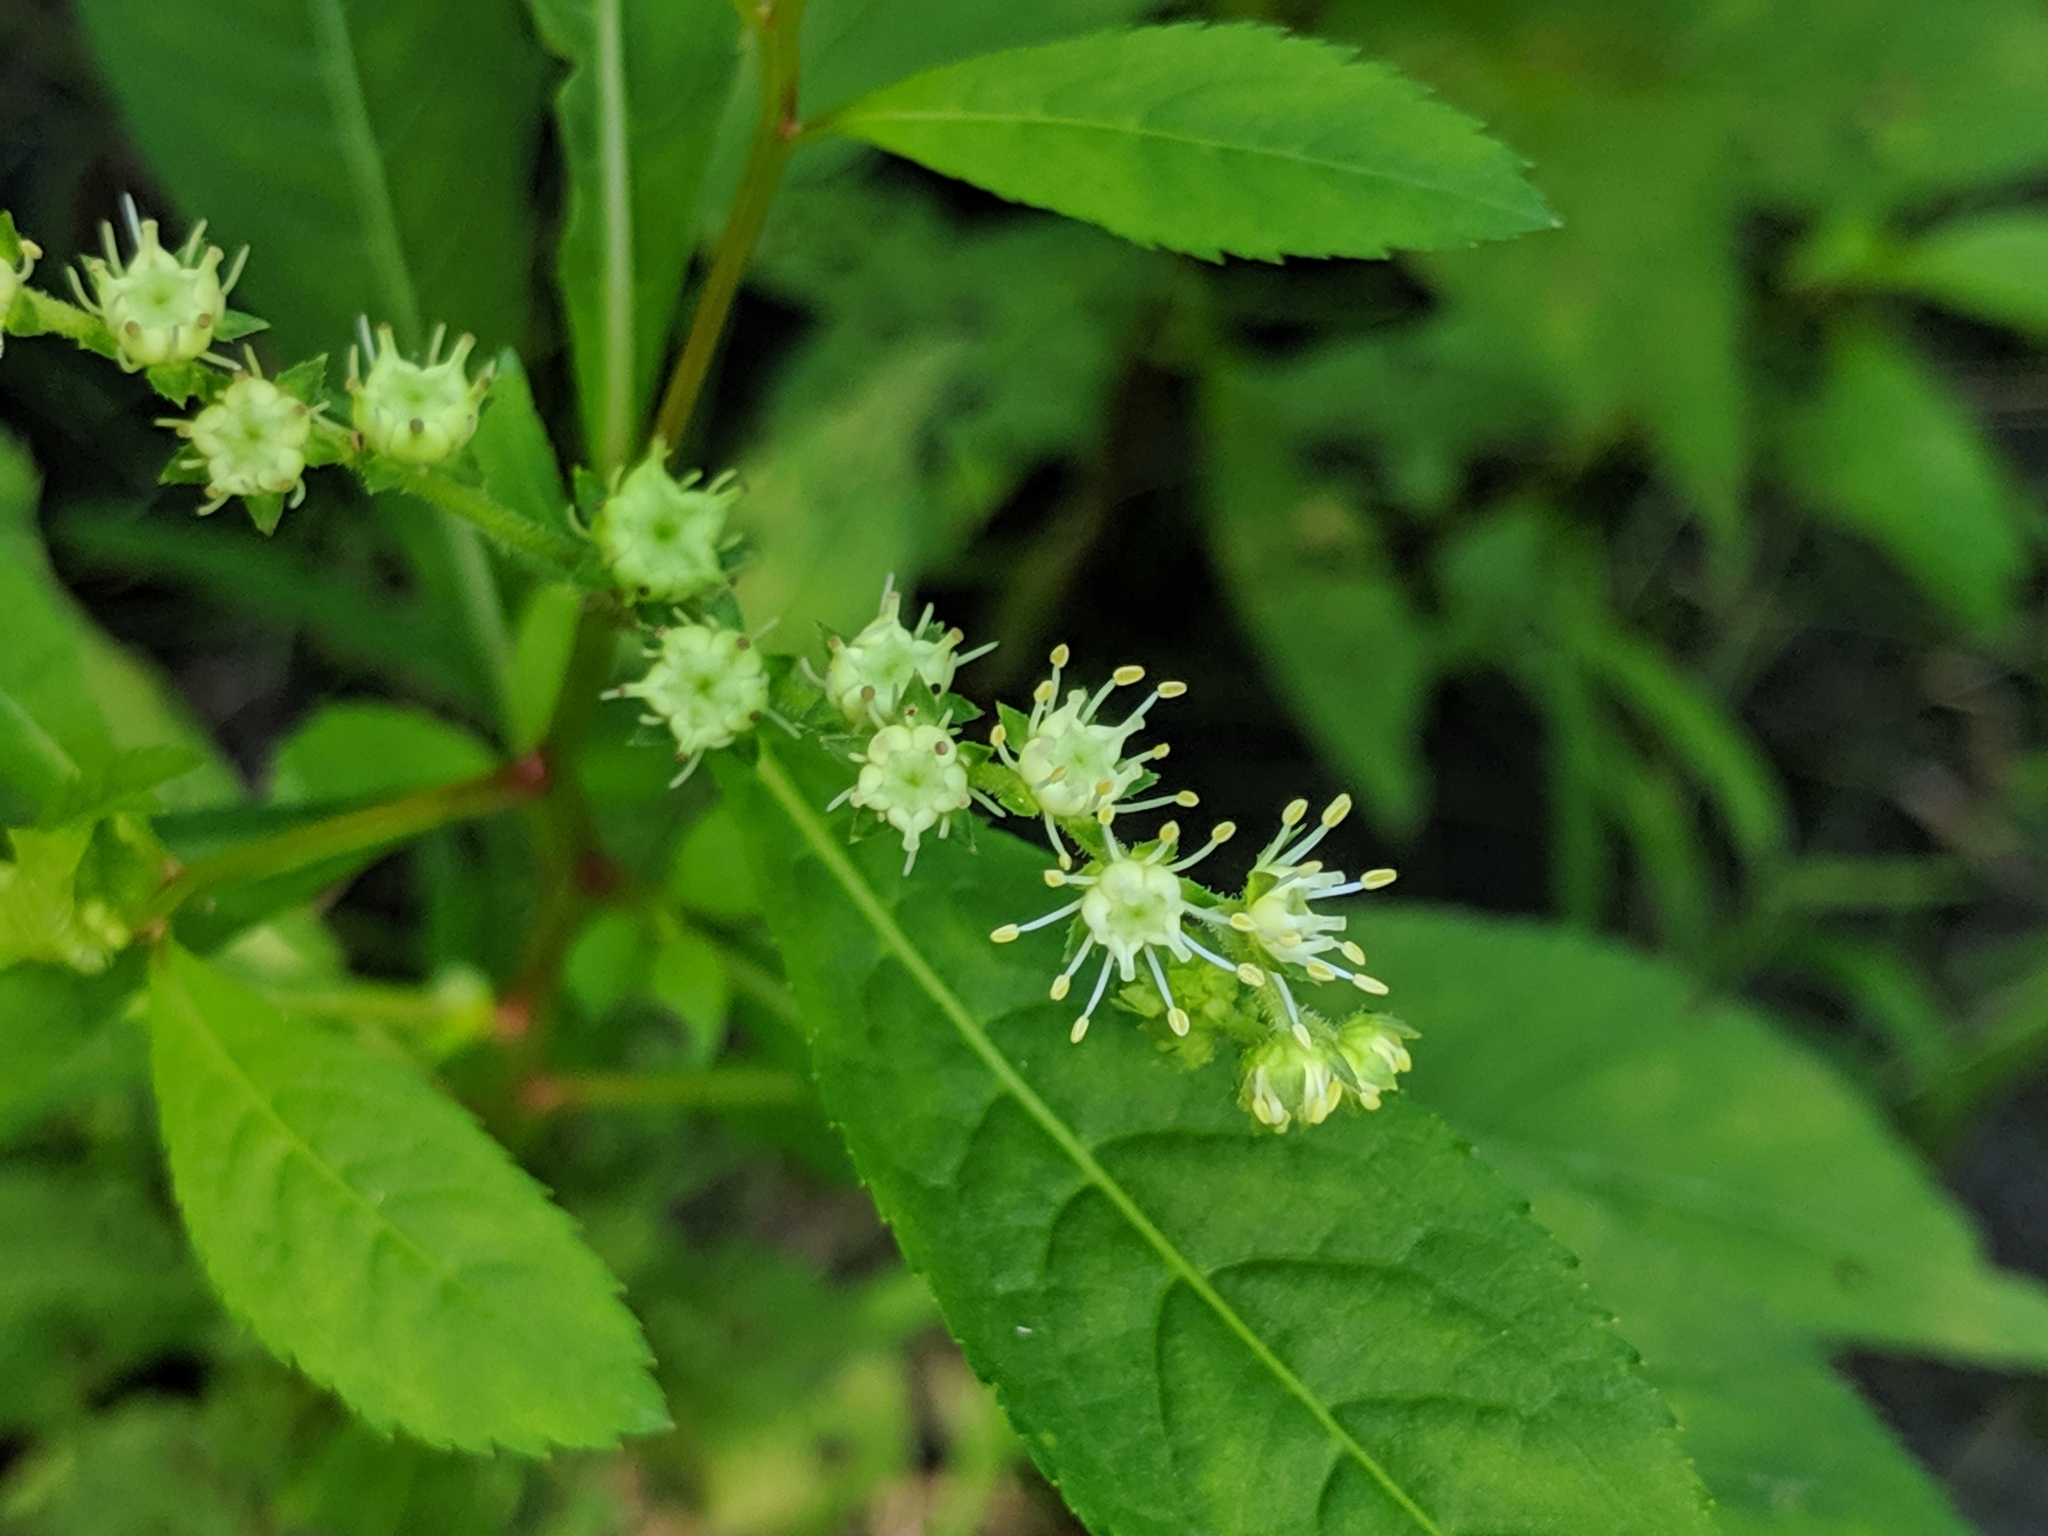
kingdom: Plantae
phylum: Tracheophyta
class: Magnoliopsida
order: Saxifragales
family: Penthoraceae
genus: Penthorum
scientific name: Penthorum sedoides
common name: Ditch stonecrop
